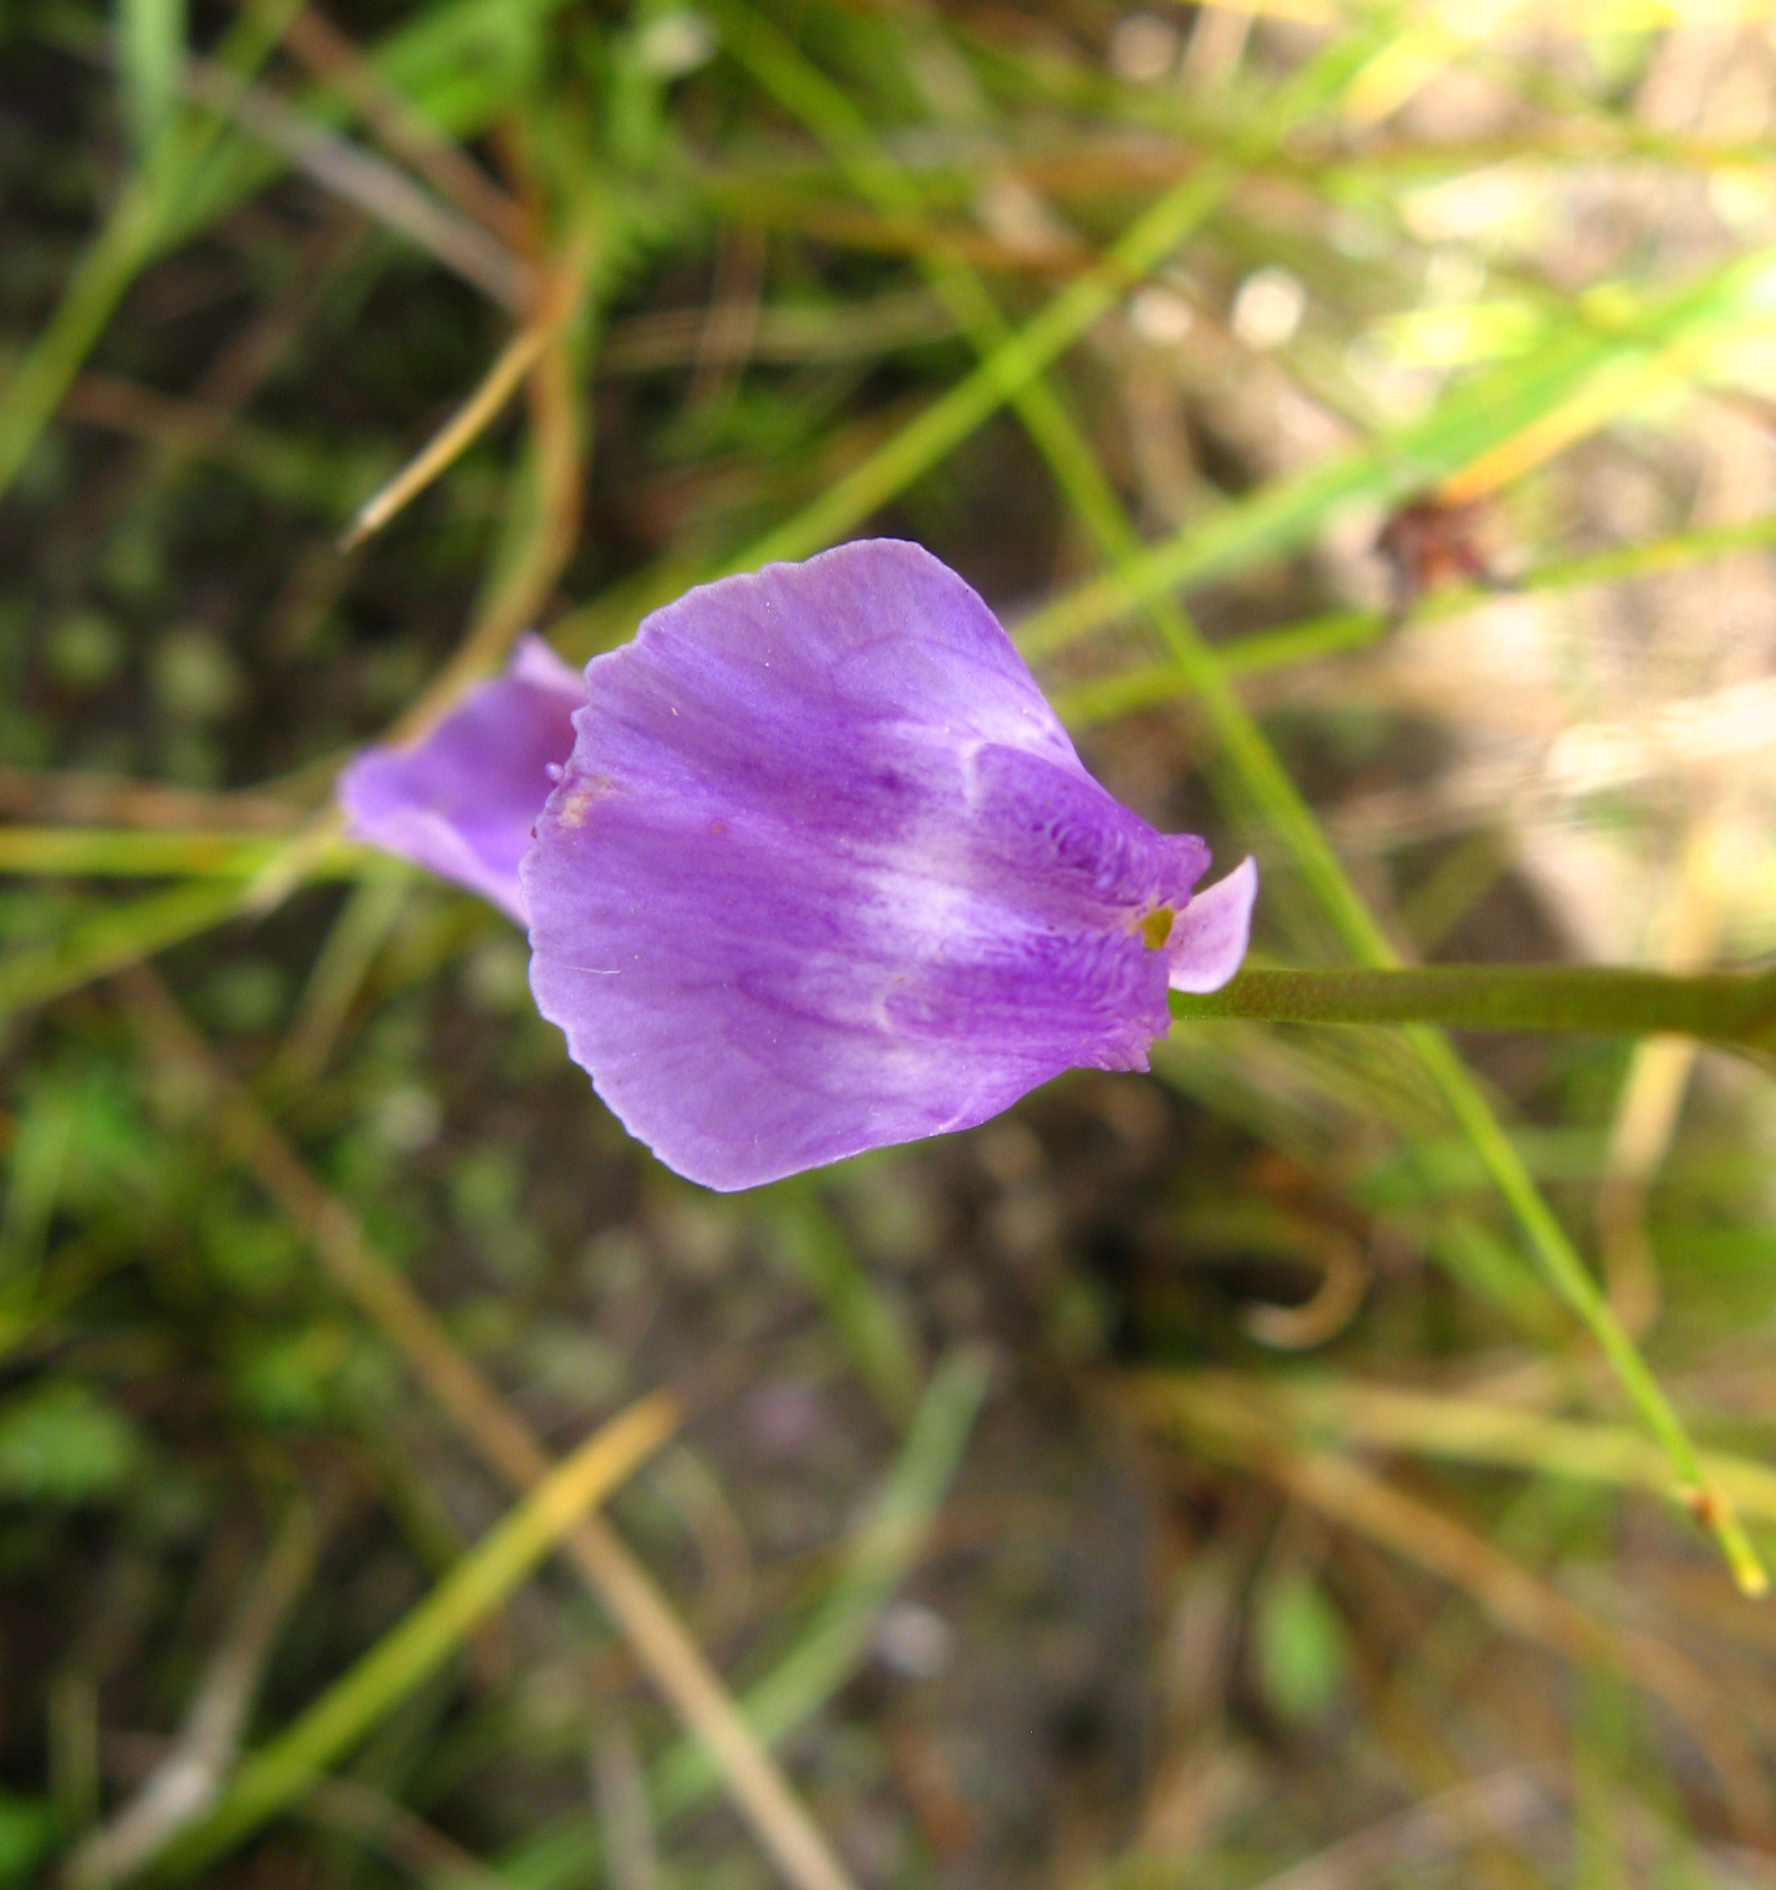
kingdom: Plantae
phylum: Tracheophyta
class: Magnoliopsida
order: Lamiales
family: Lentibulariaceae
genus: Utricularia
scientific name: Utricularia livida
